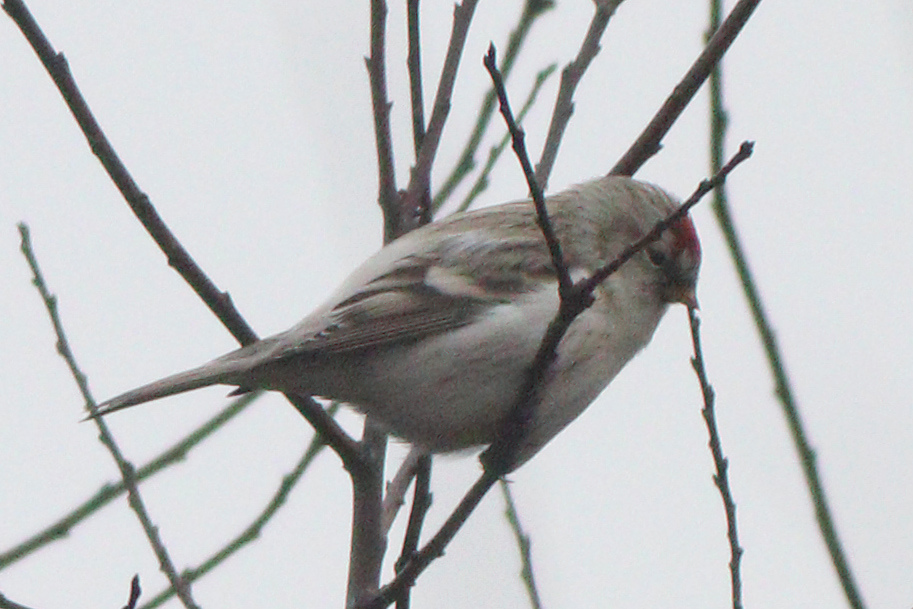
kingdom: Animalia
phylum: Chordata
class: Aves
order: Passeriformes
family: Fringillidae
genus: Acanthis
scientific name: Acanthis hornemanni
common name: Arctic redpoll
